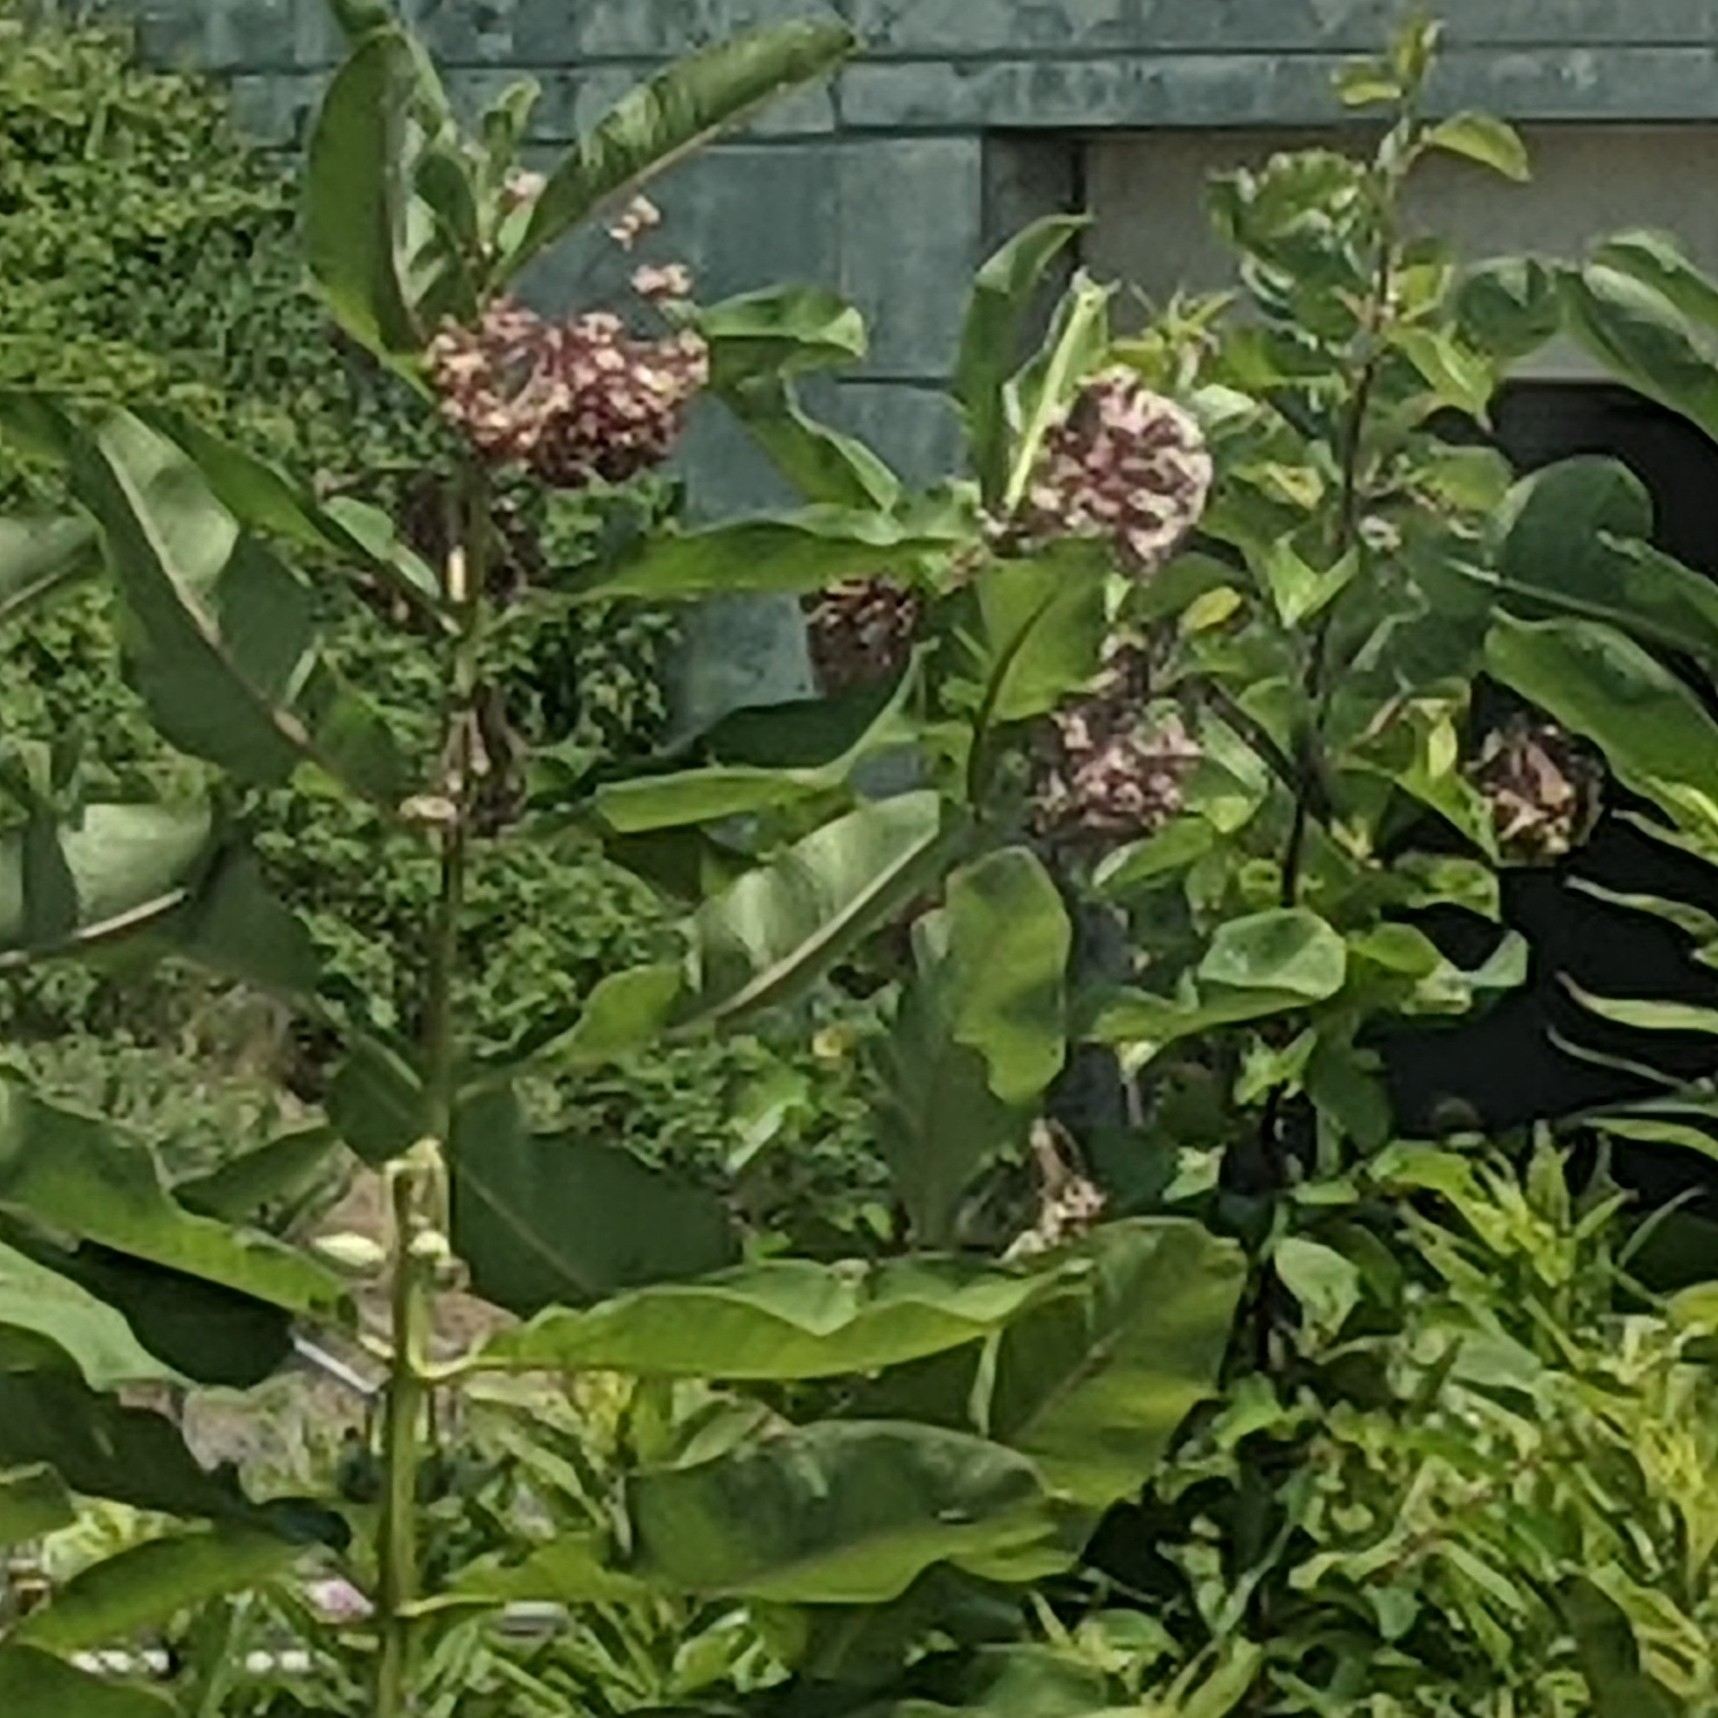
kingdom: Plantae
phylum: Tracheophyta
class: Magnoliopsida
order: Gentianales
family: Apocynaceae
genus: Asclepias
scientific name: Asclepias syriaca
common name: Common milkweed
